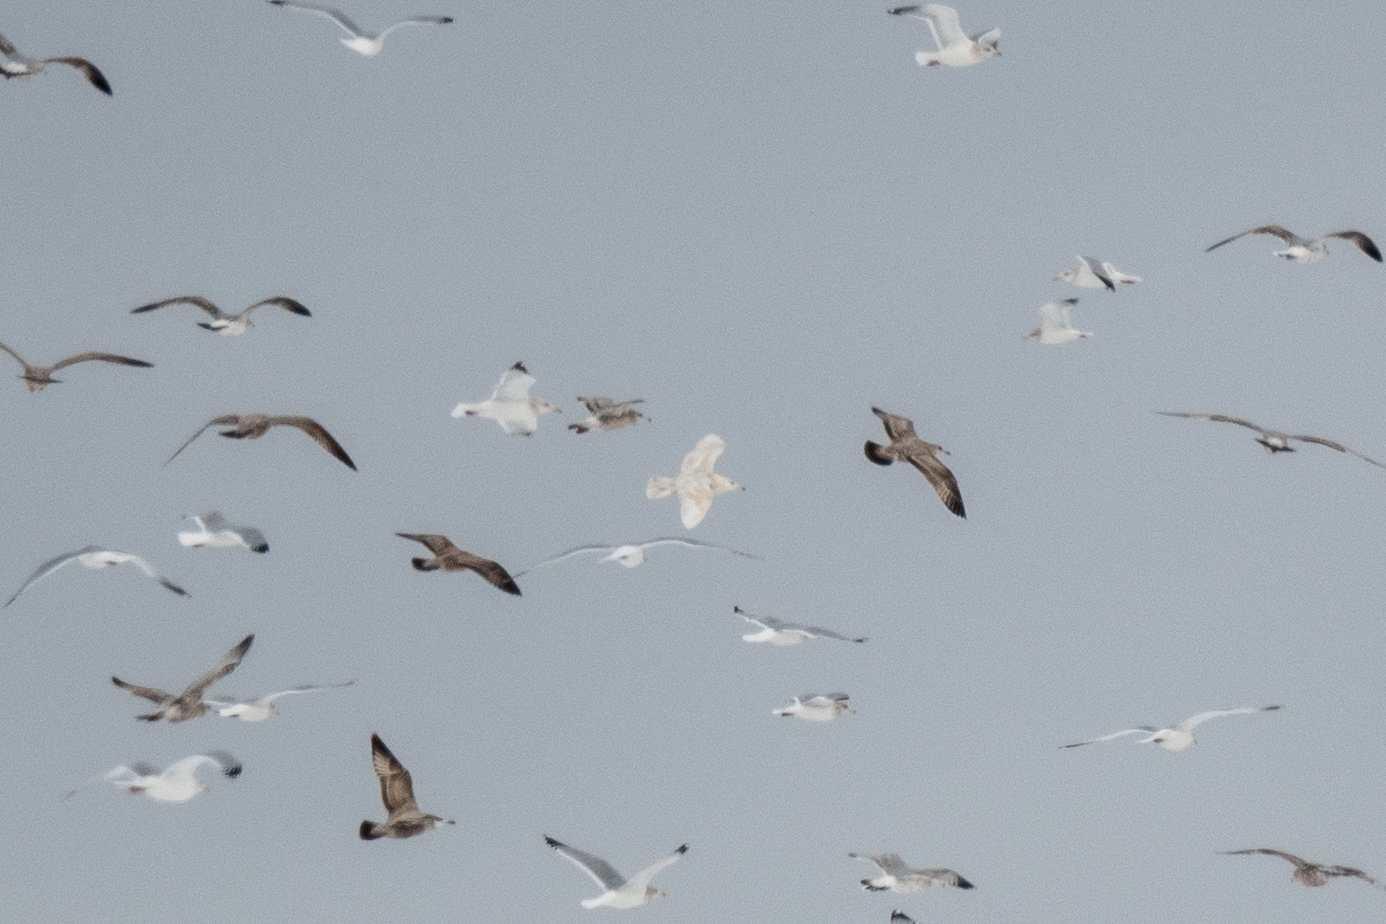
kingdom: Animalia
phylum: Chordata
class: Aves
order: Charadriiformes
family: Laridae
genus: Larus
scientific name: Larus hyperboreus
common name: Glaucous gull
